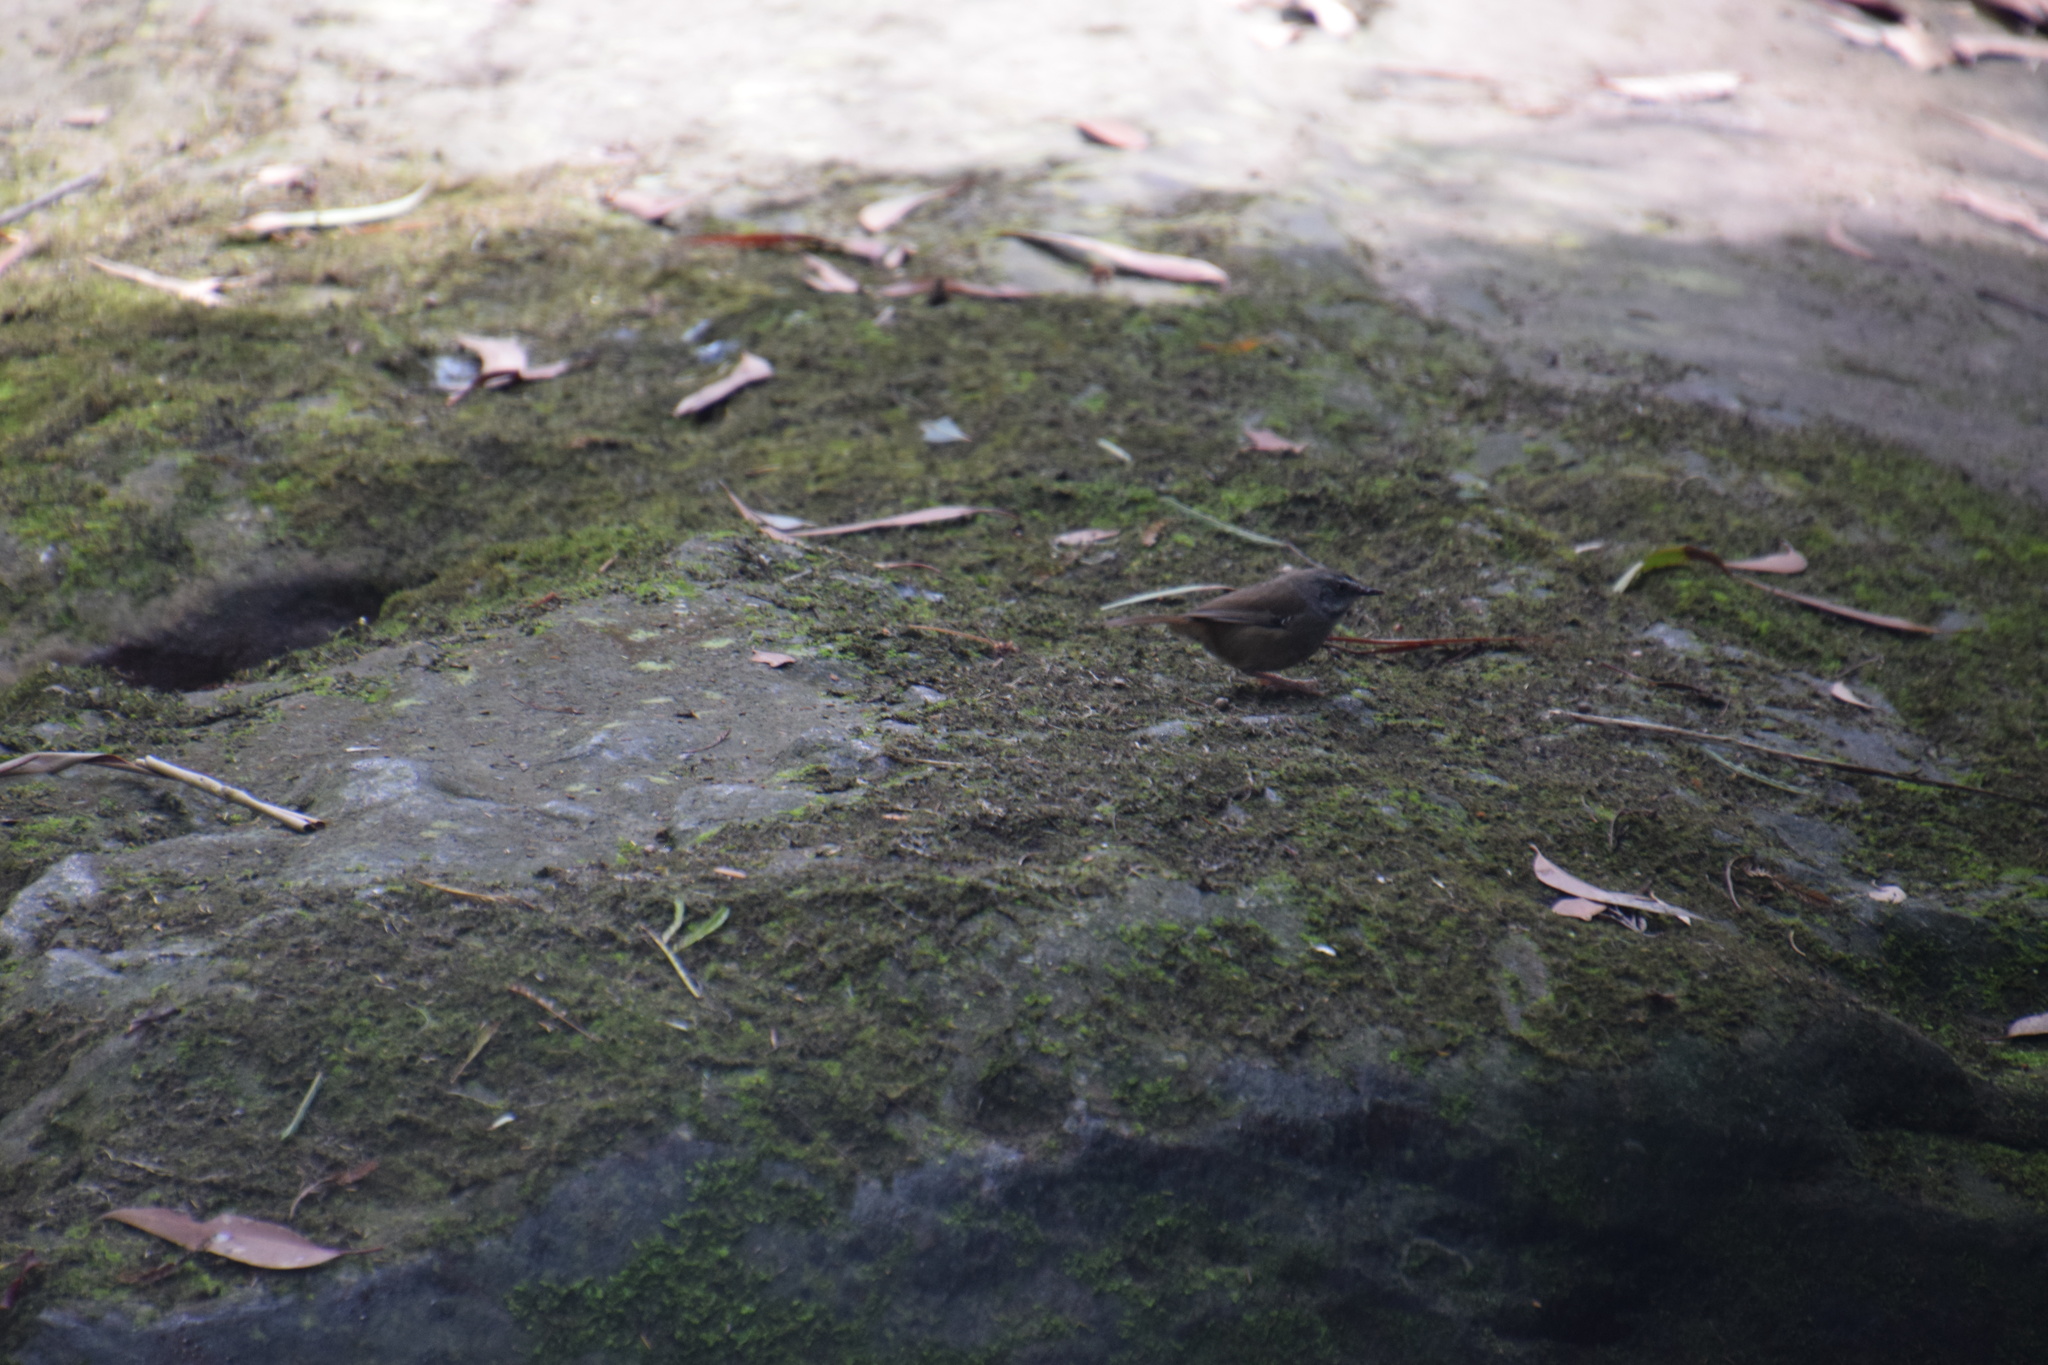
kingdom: Animalia
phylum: Chordata
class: Aves
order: Passeriformes
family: Acanthizidae
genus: Sericornis
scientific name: Sericornis frontalis
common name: White-browed scrubwren
